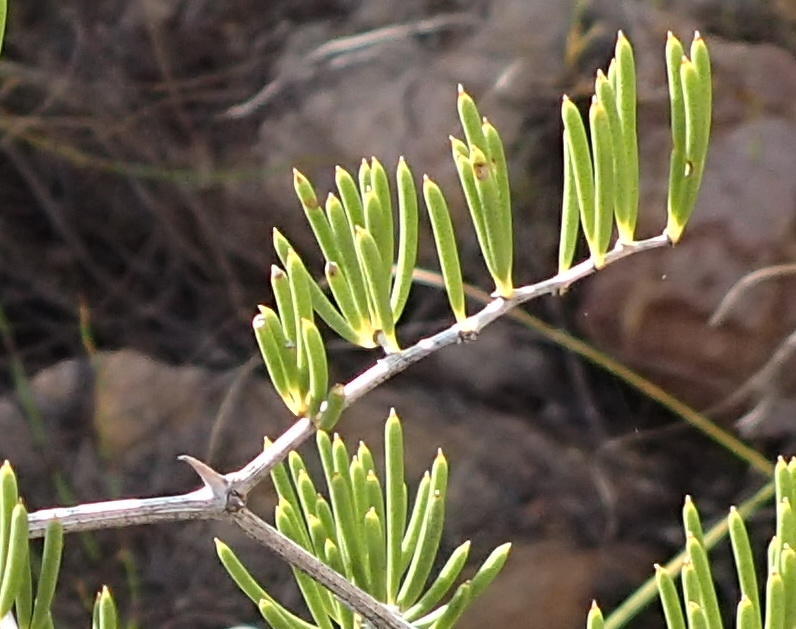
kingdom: Plantae
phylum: Tracheophyta
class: Liliopsida
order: Asparagales
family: Asparagaceae
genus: Asparagus
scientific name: Asparagus lignosus
